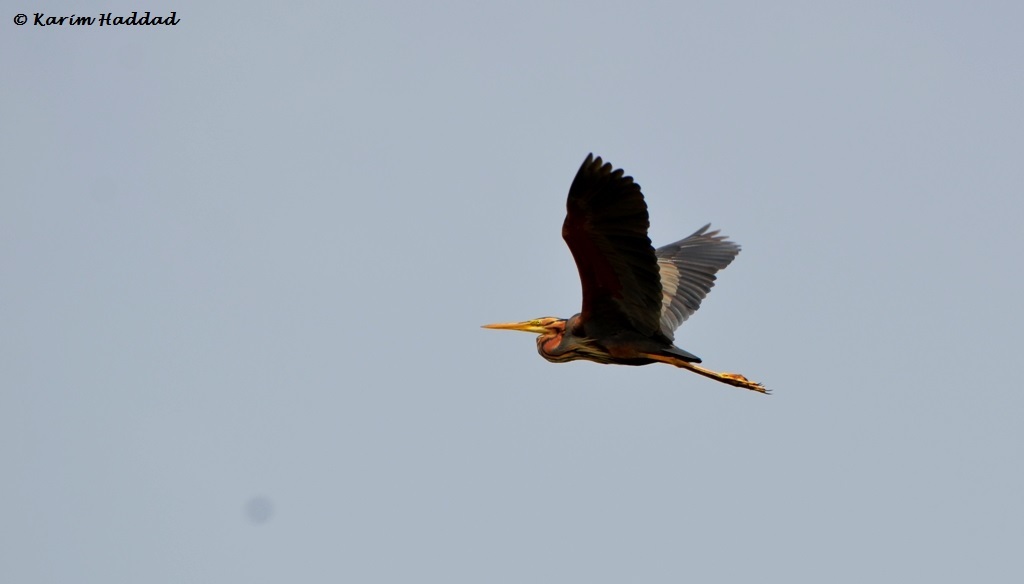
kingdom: Animalia
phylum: Chordata
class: Aves
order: Pelecaniformes
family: Ardeidae
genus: Ardea
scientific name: Ardea purpurea
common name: Purple heron
